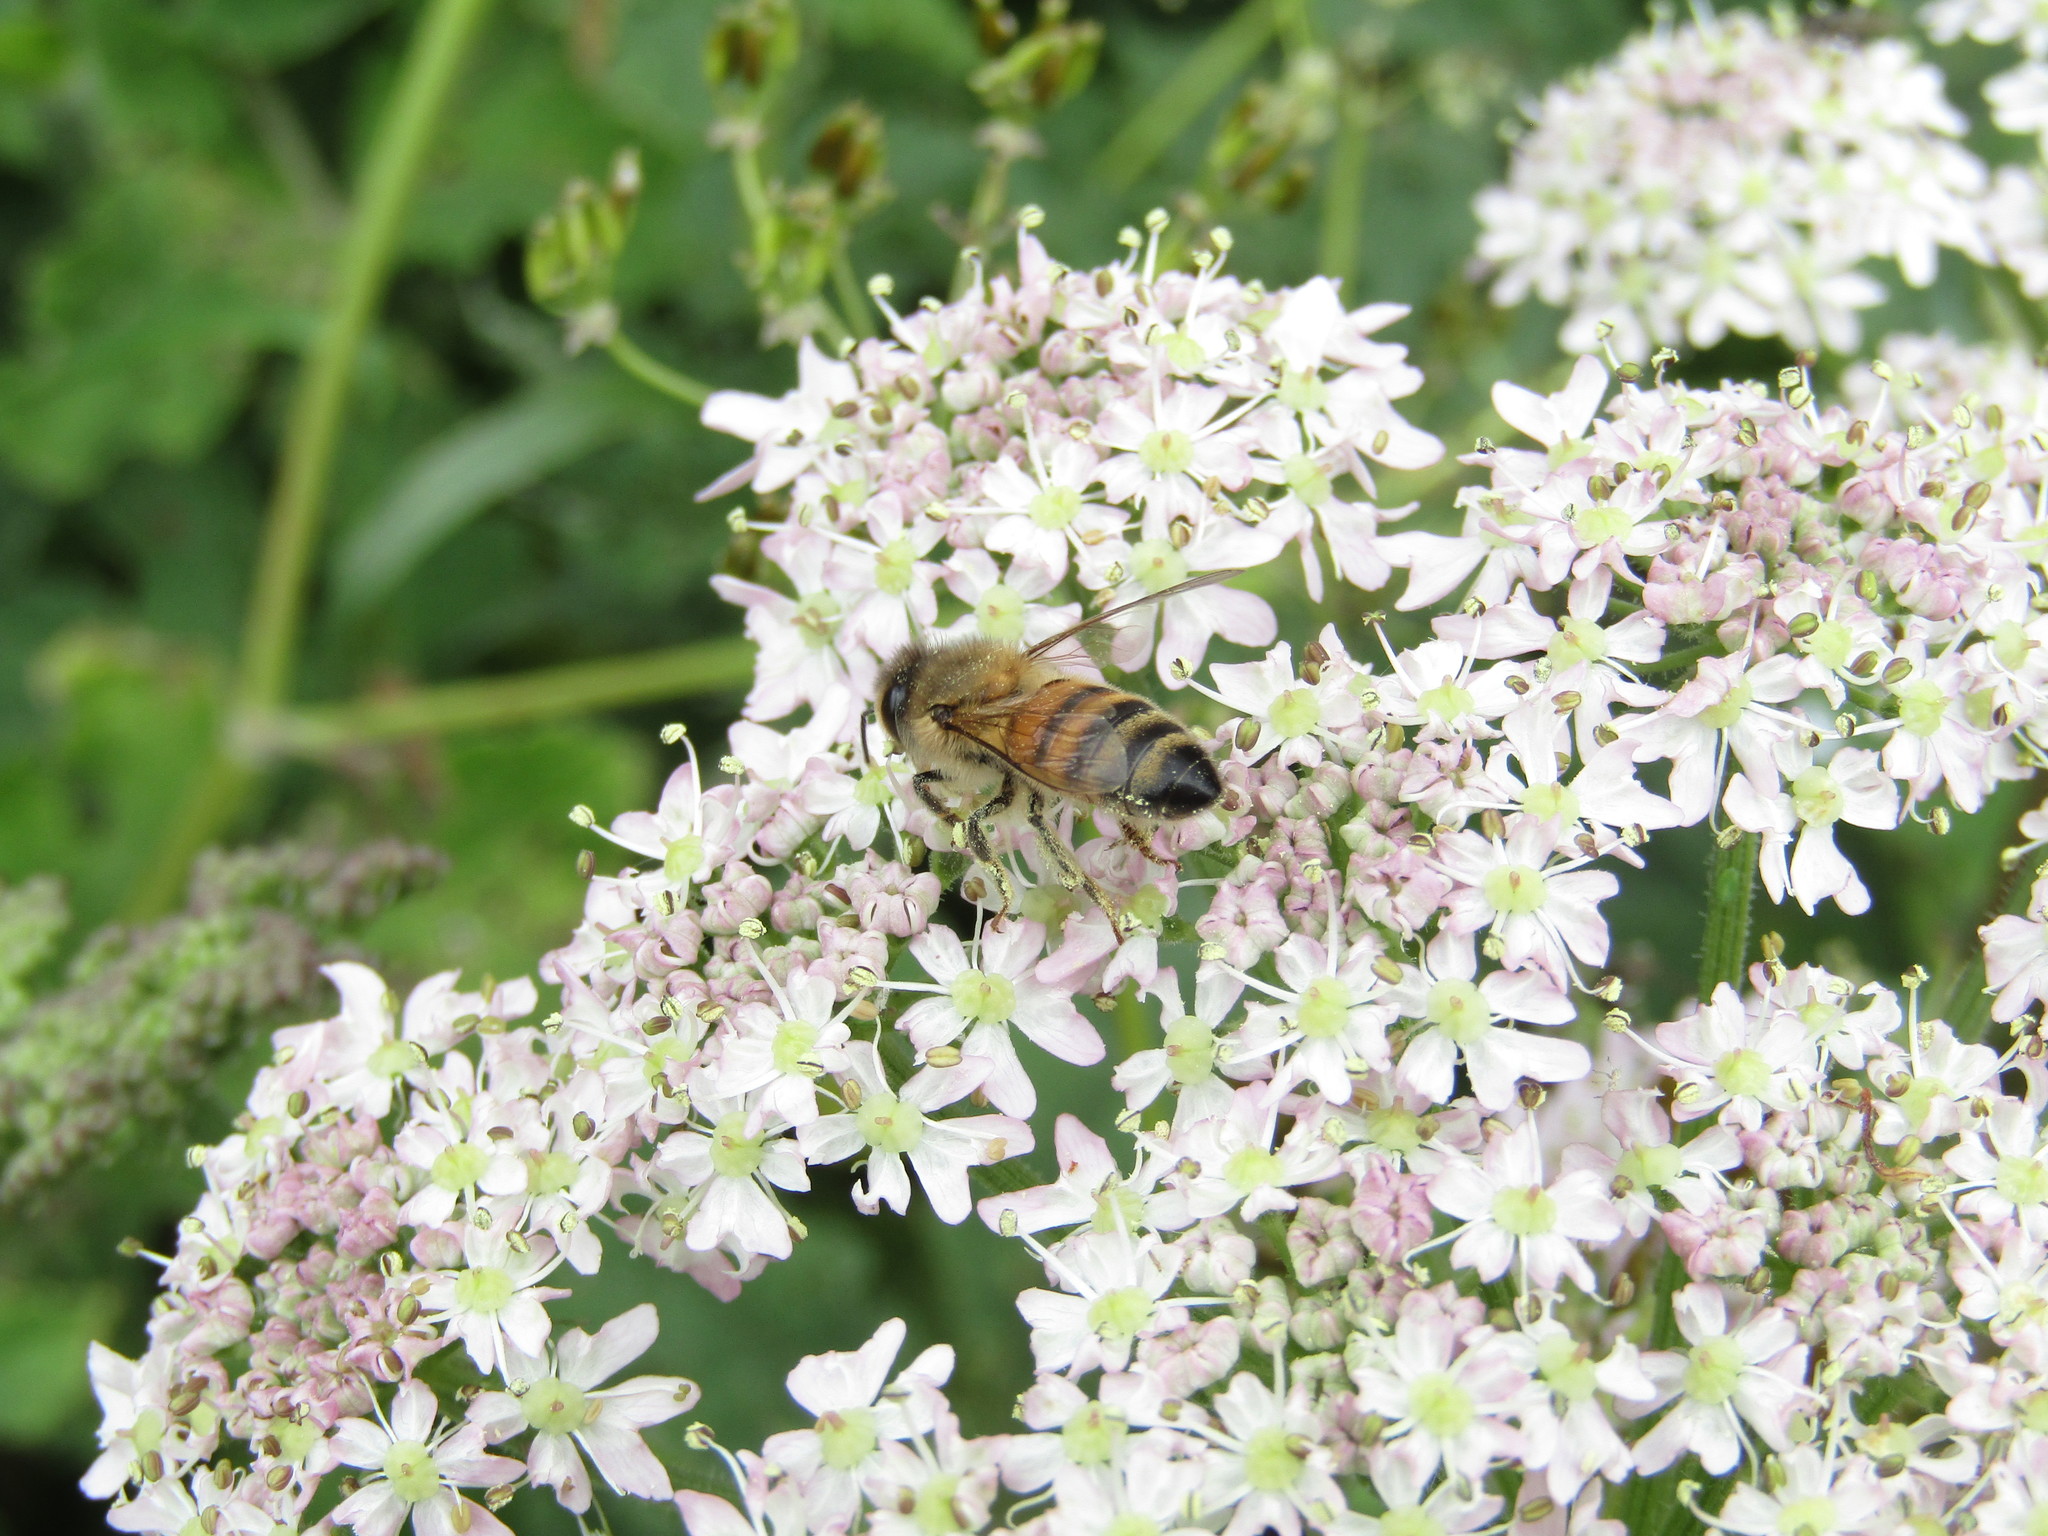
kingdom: Animalia
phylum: Arthropoda
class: Insecta
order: Hymenoptera
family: Apidae
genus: Apis
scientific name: Apis mellifera
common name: Honey bee
